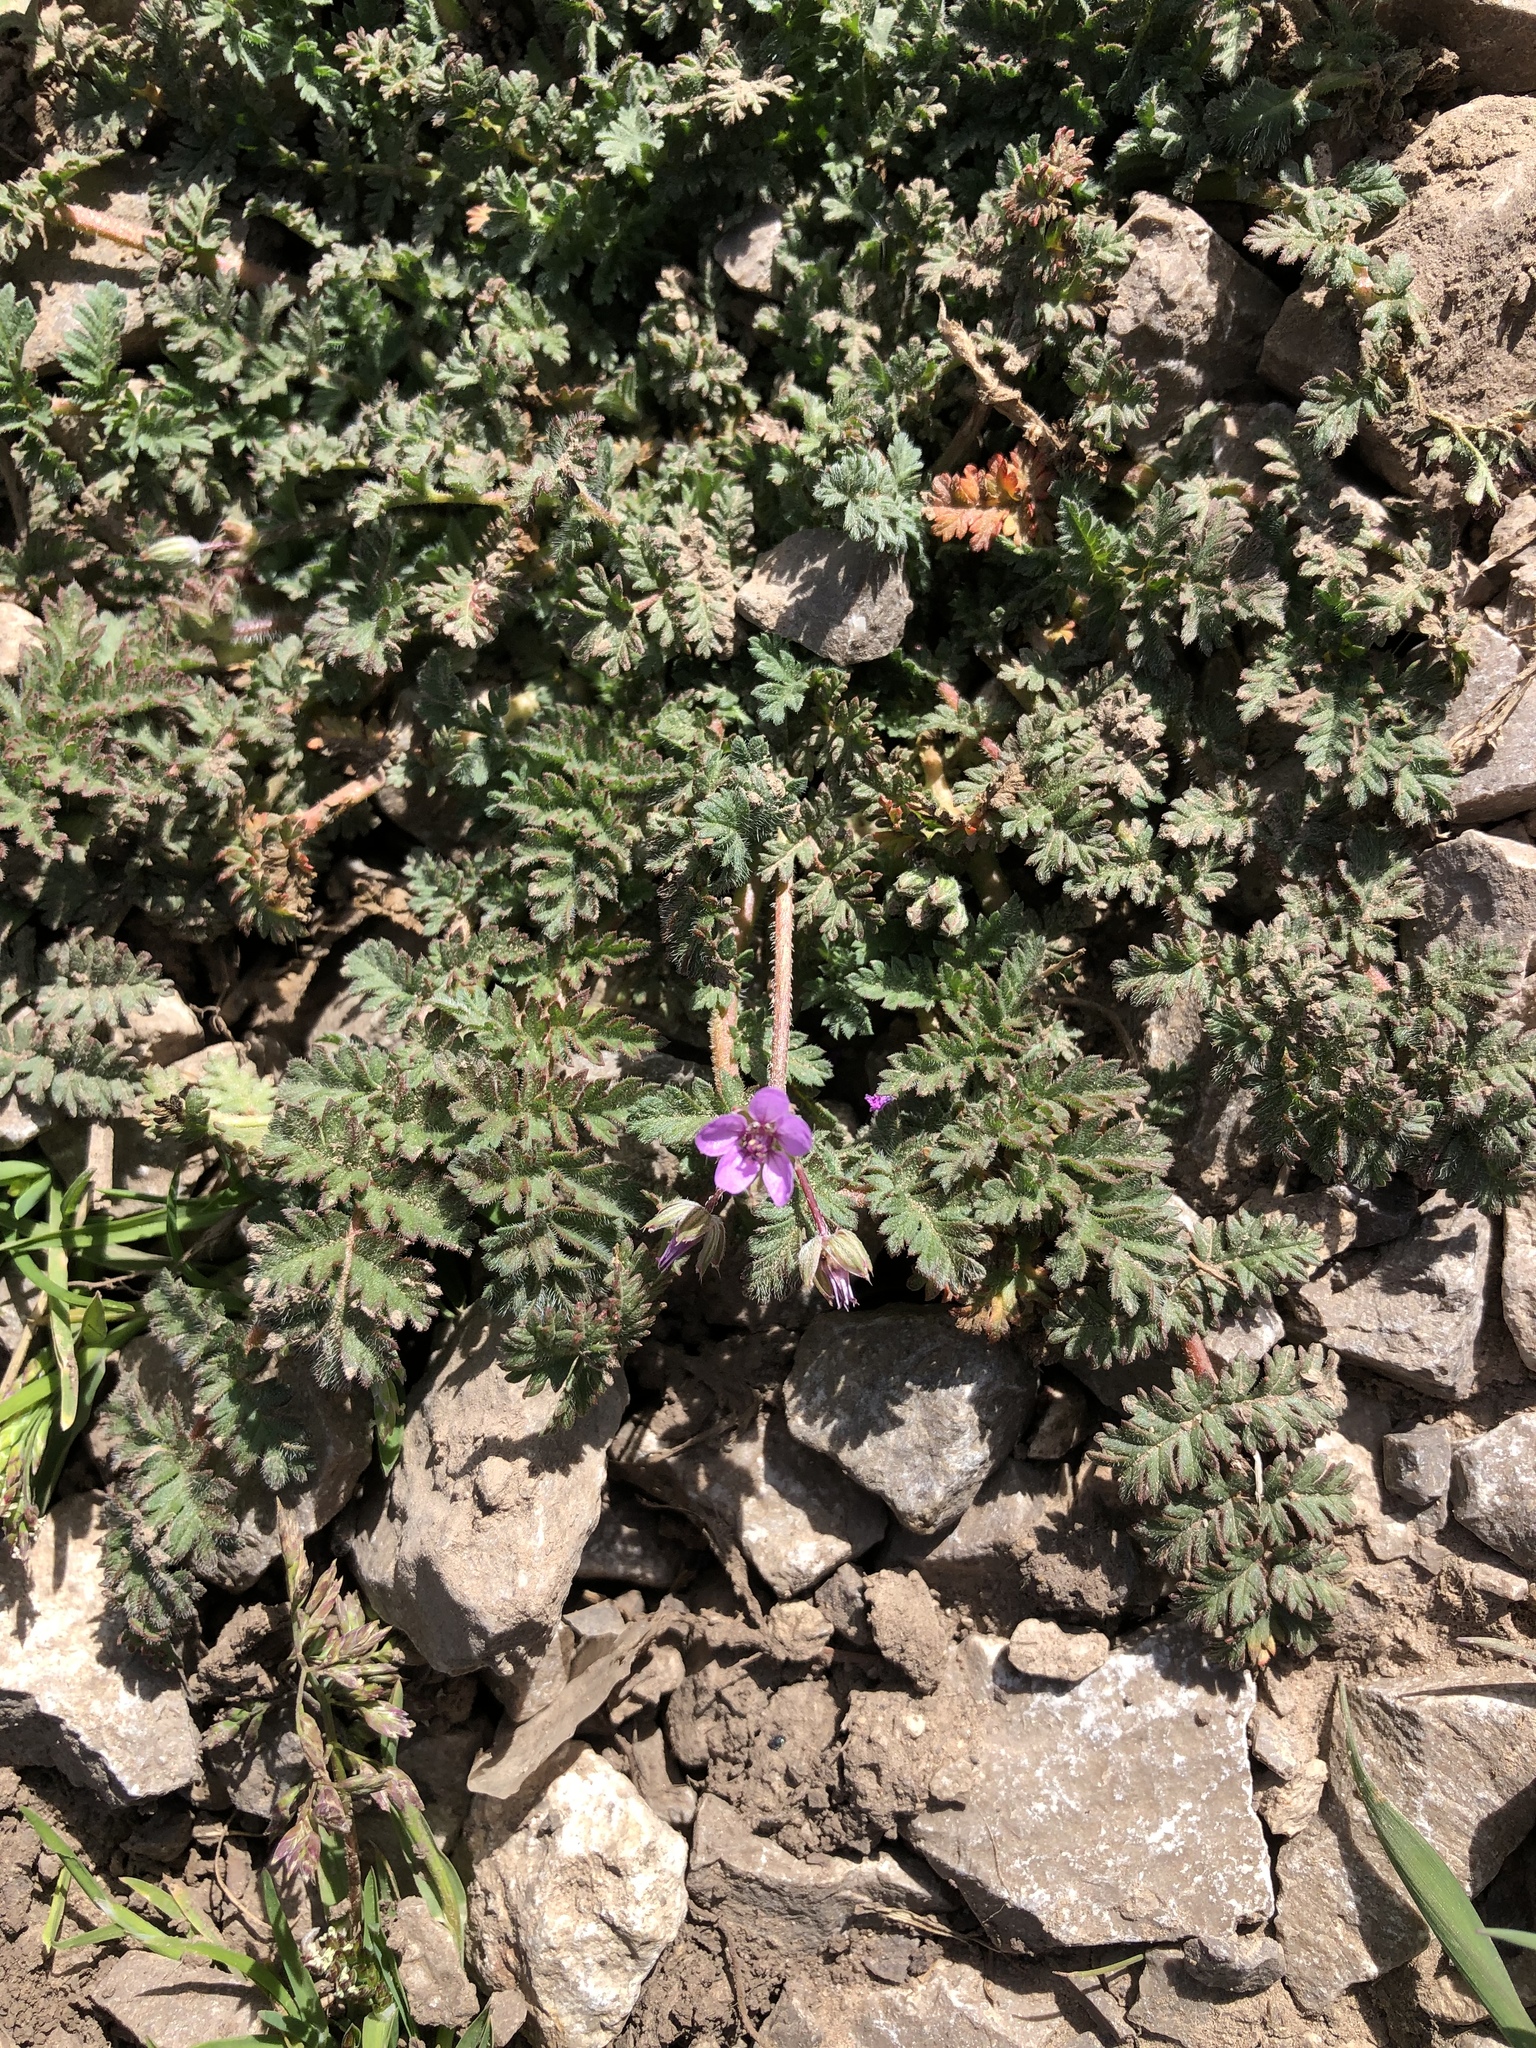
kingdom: Plantae
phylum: Tracheophyta
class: Magnoliopsida
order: Geraniales
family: Geraniaceae
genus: Erodium
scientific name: Erodium cicutarium
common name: Common stork's-bill
